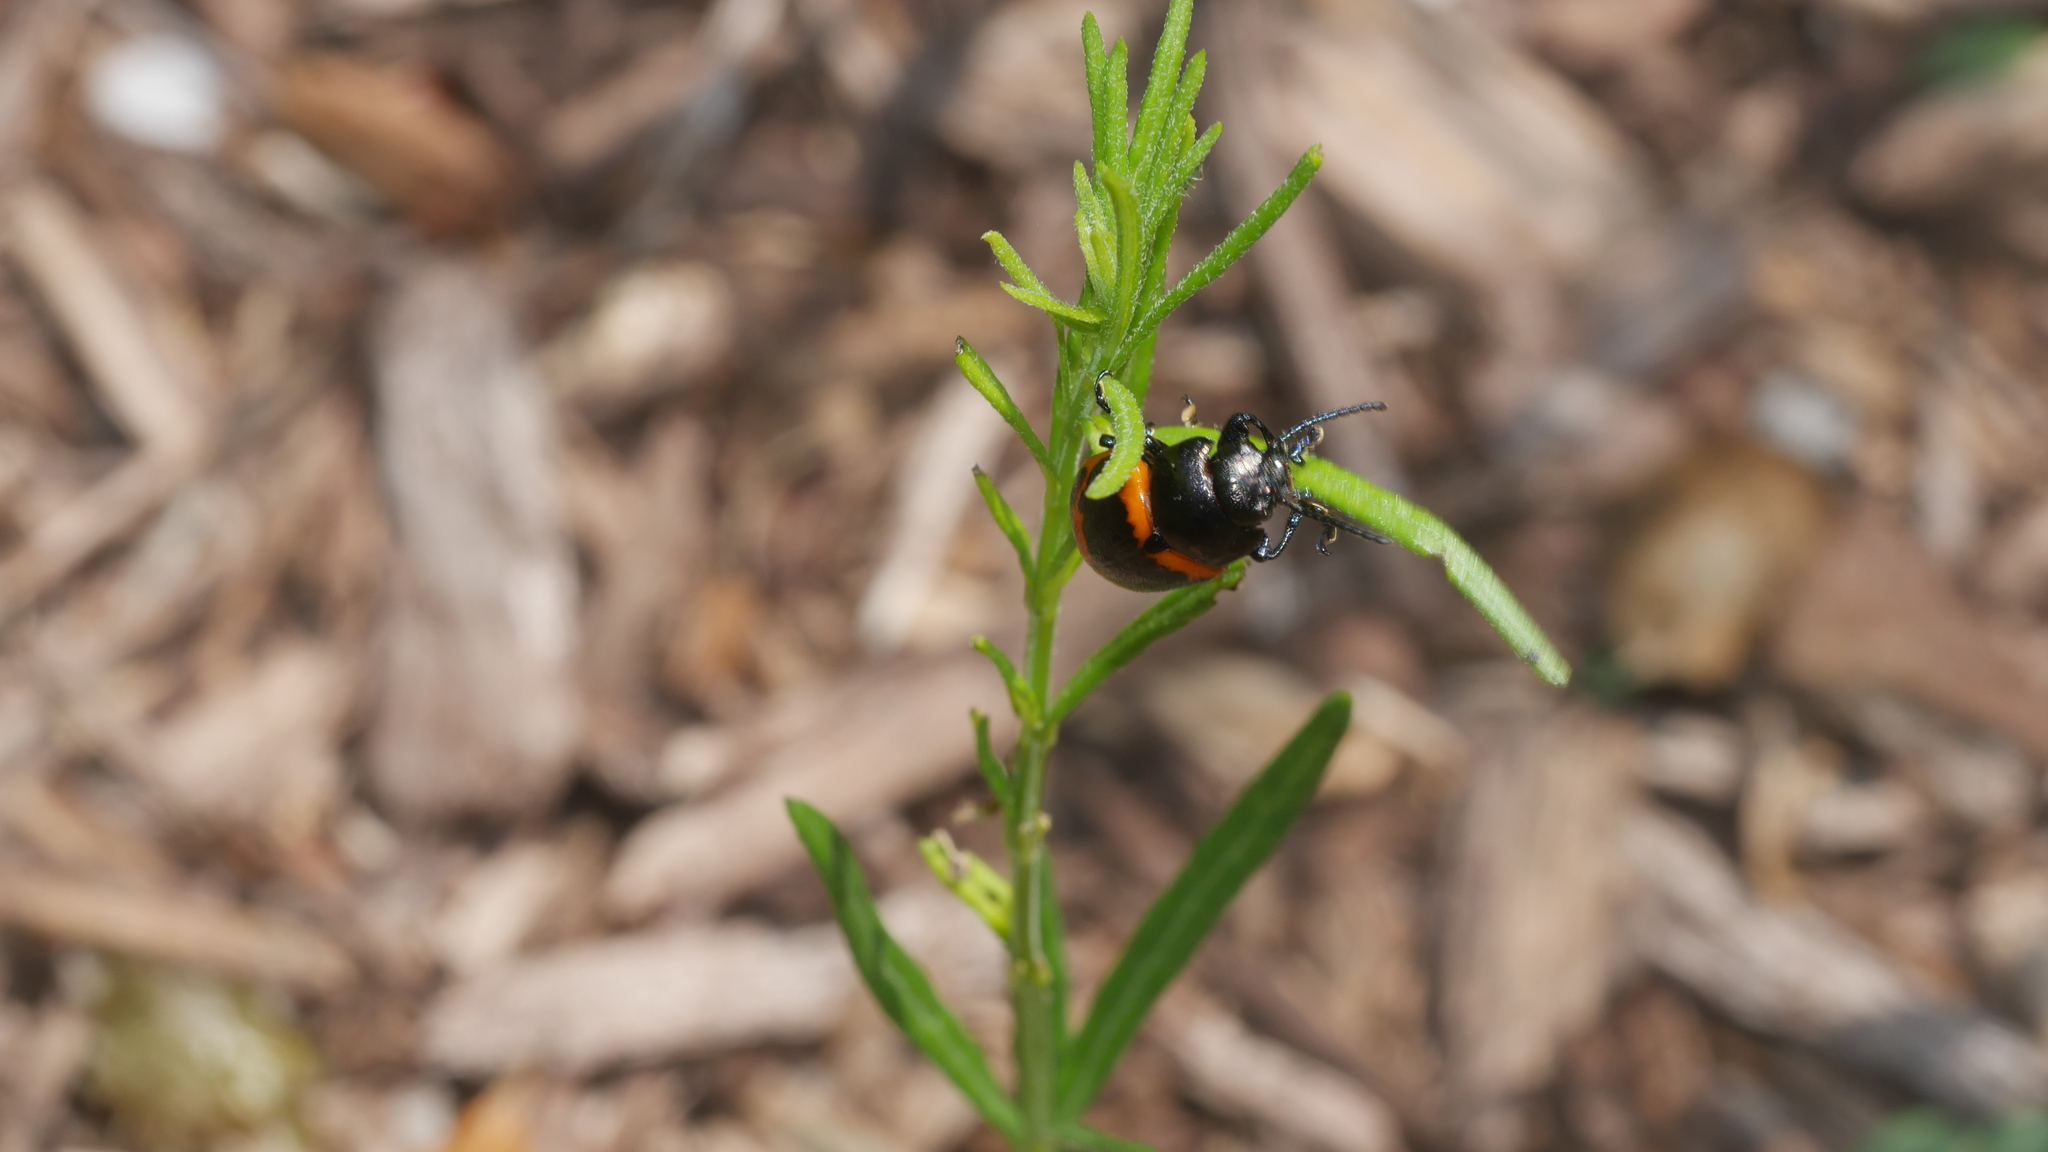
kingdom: Animalia
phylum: Arthropoda
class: Insecta
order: Coleoptera
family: Chrysomelidae
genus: Labidomera
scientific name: Labidomera clivicollis
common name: Swamp milkweed leaf beetle
